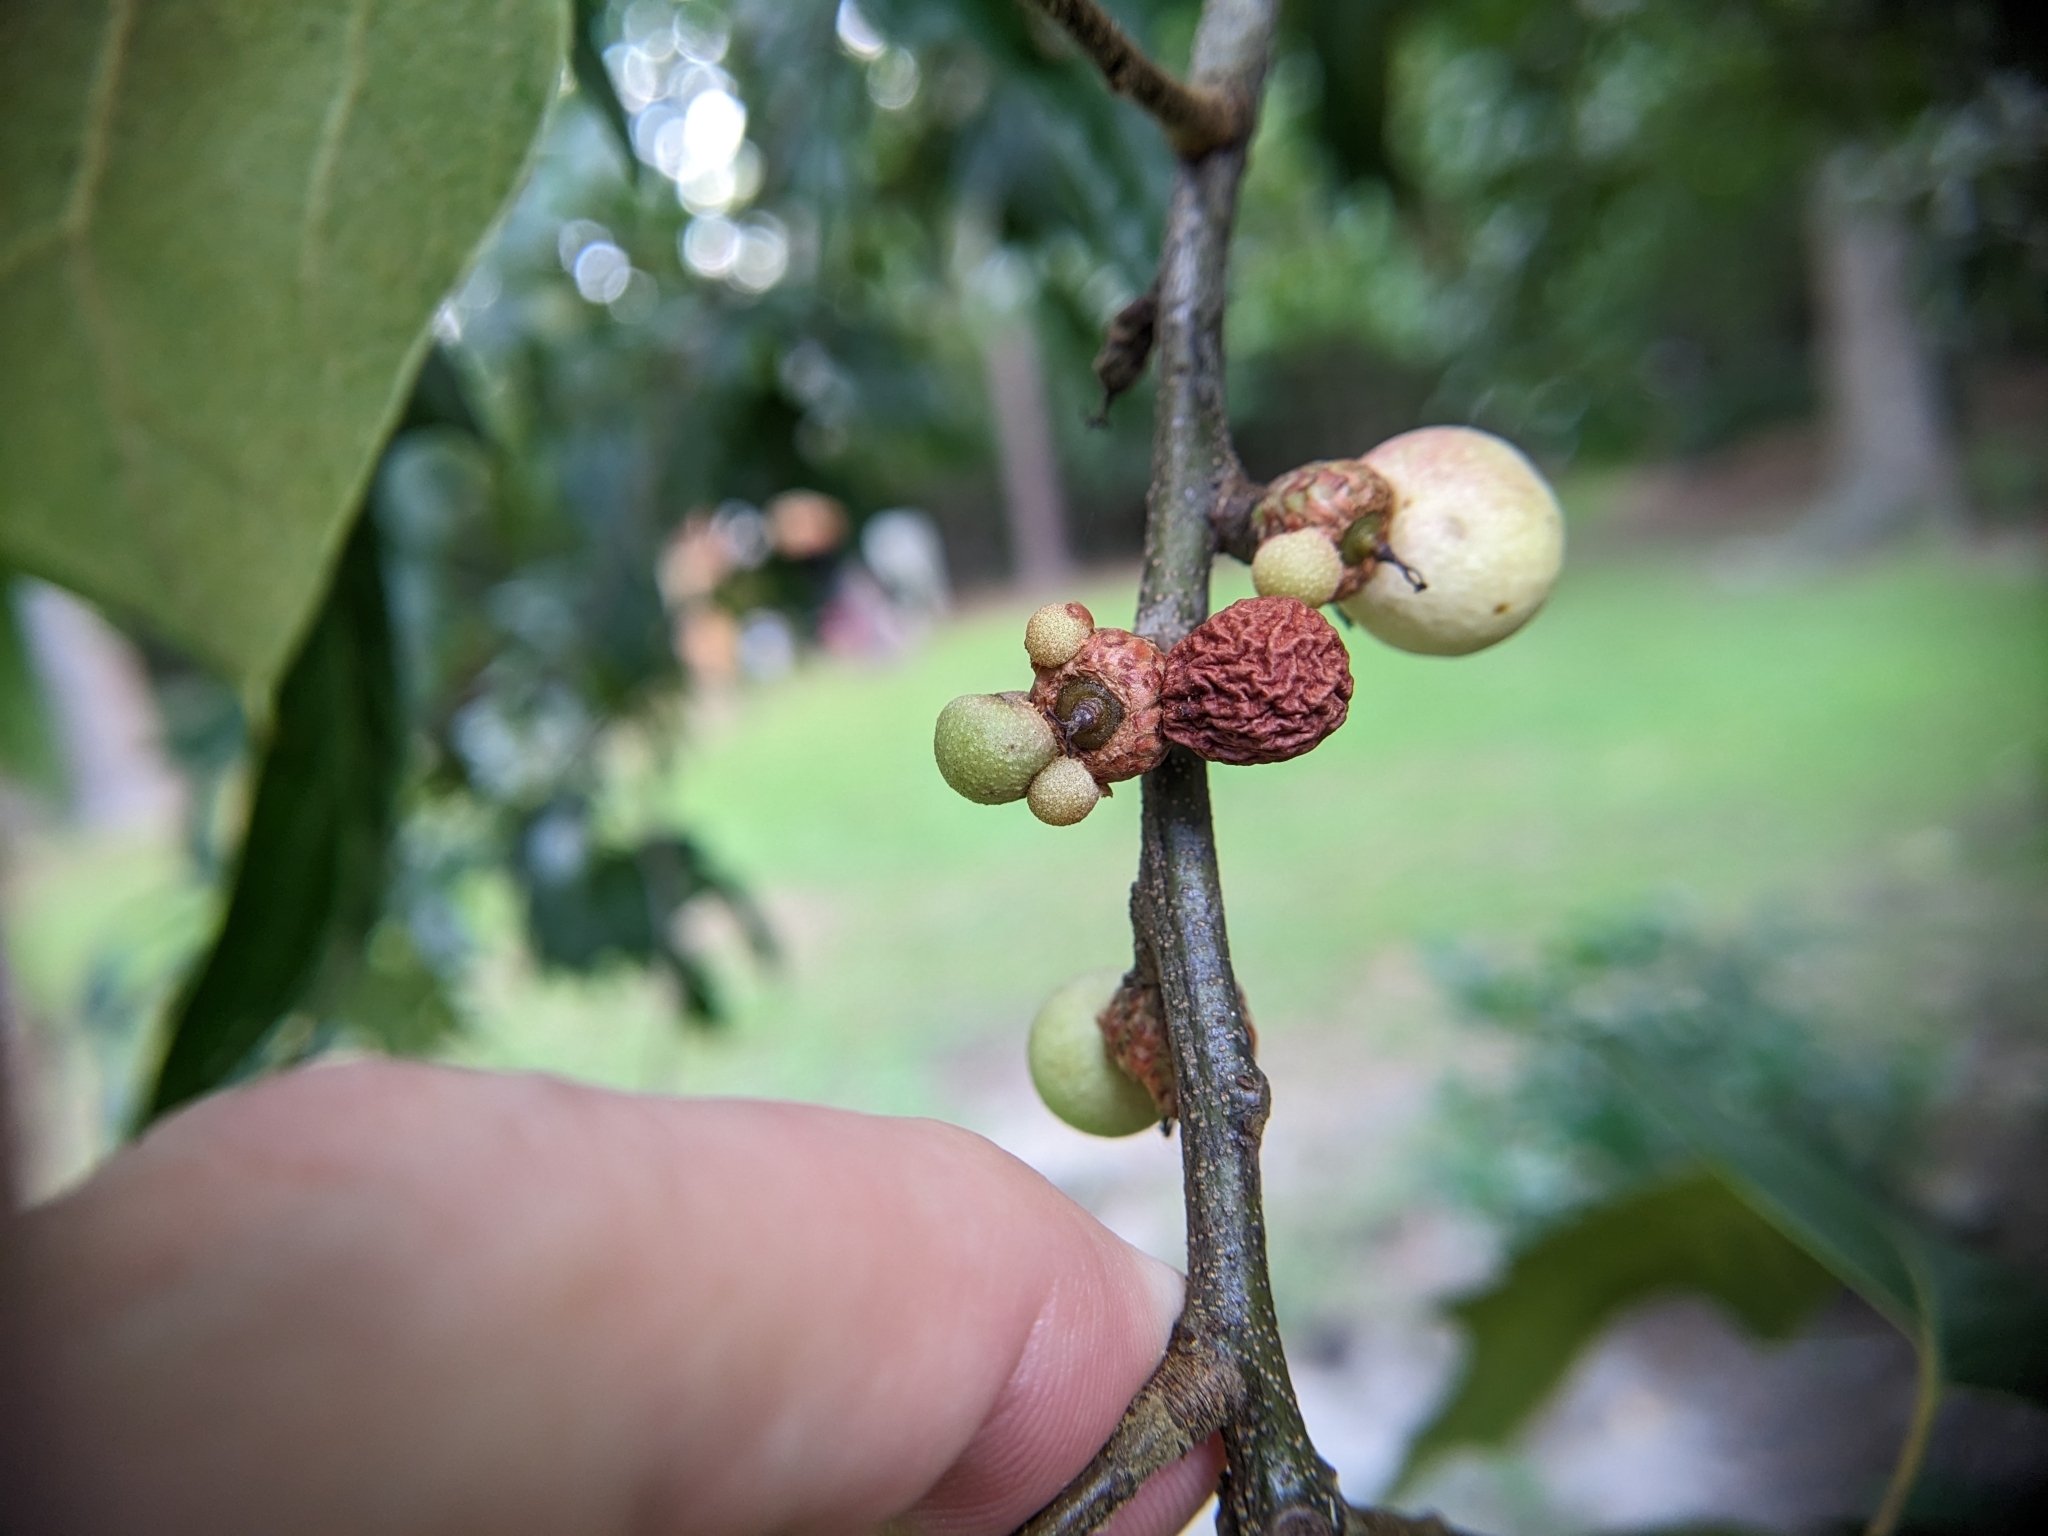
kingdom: Animalia
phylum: Arthropoda
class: Insecta
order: Hymenoptera
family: Cynipidae
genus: Amphibolips
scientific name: Amphibolips
